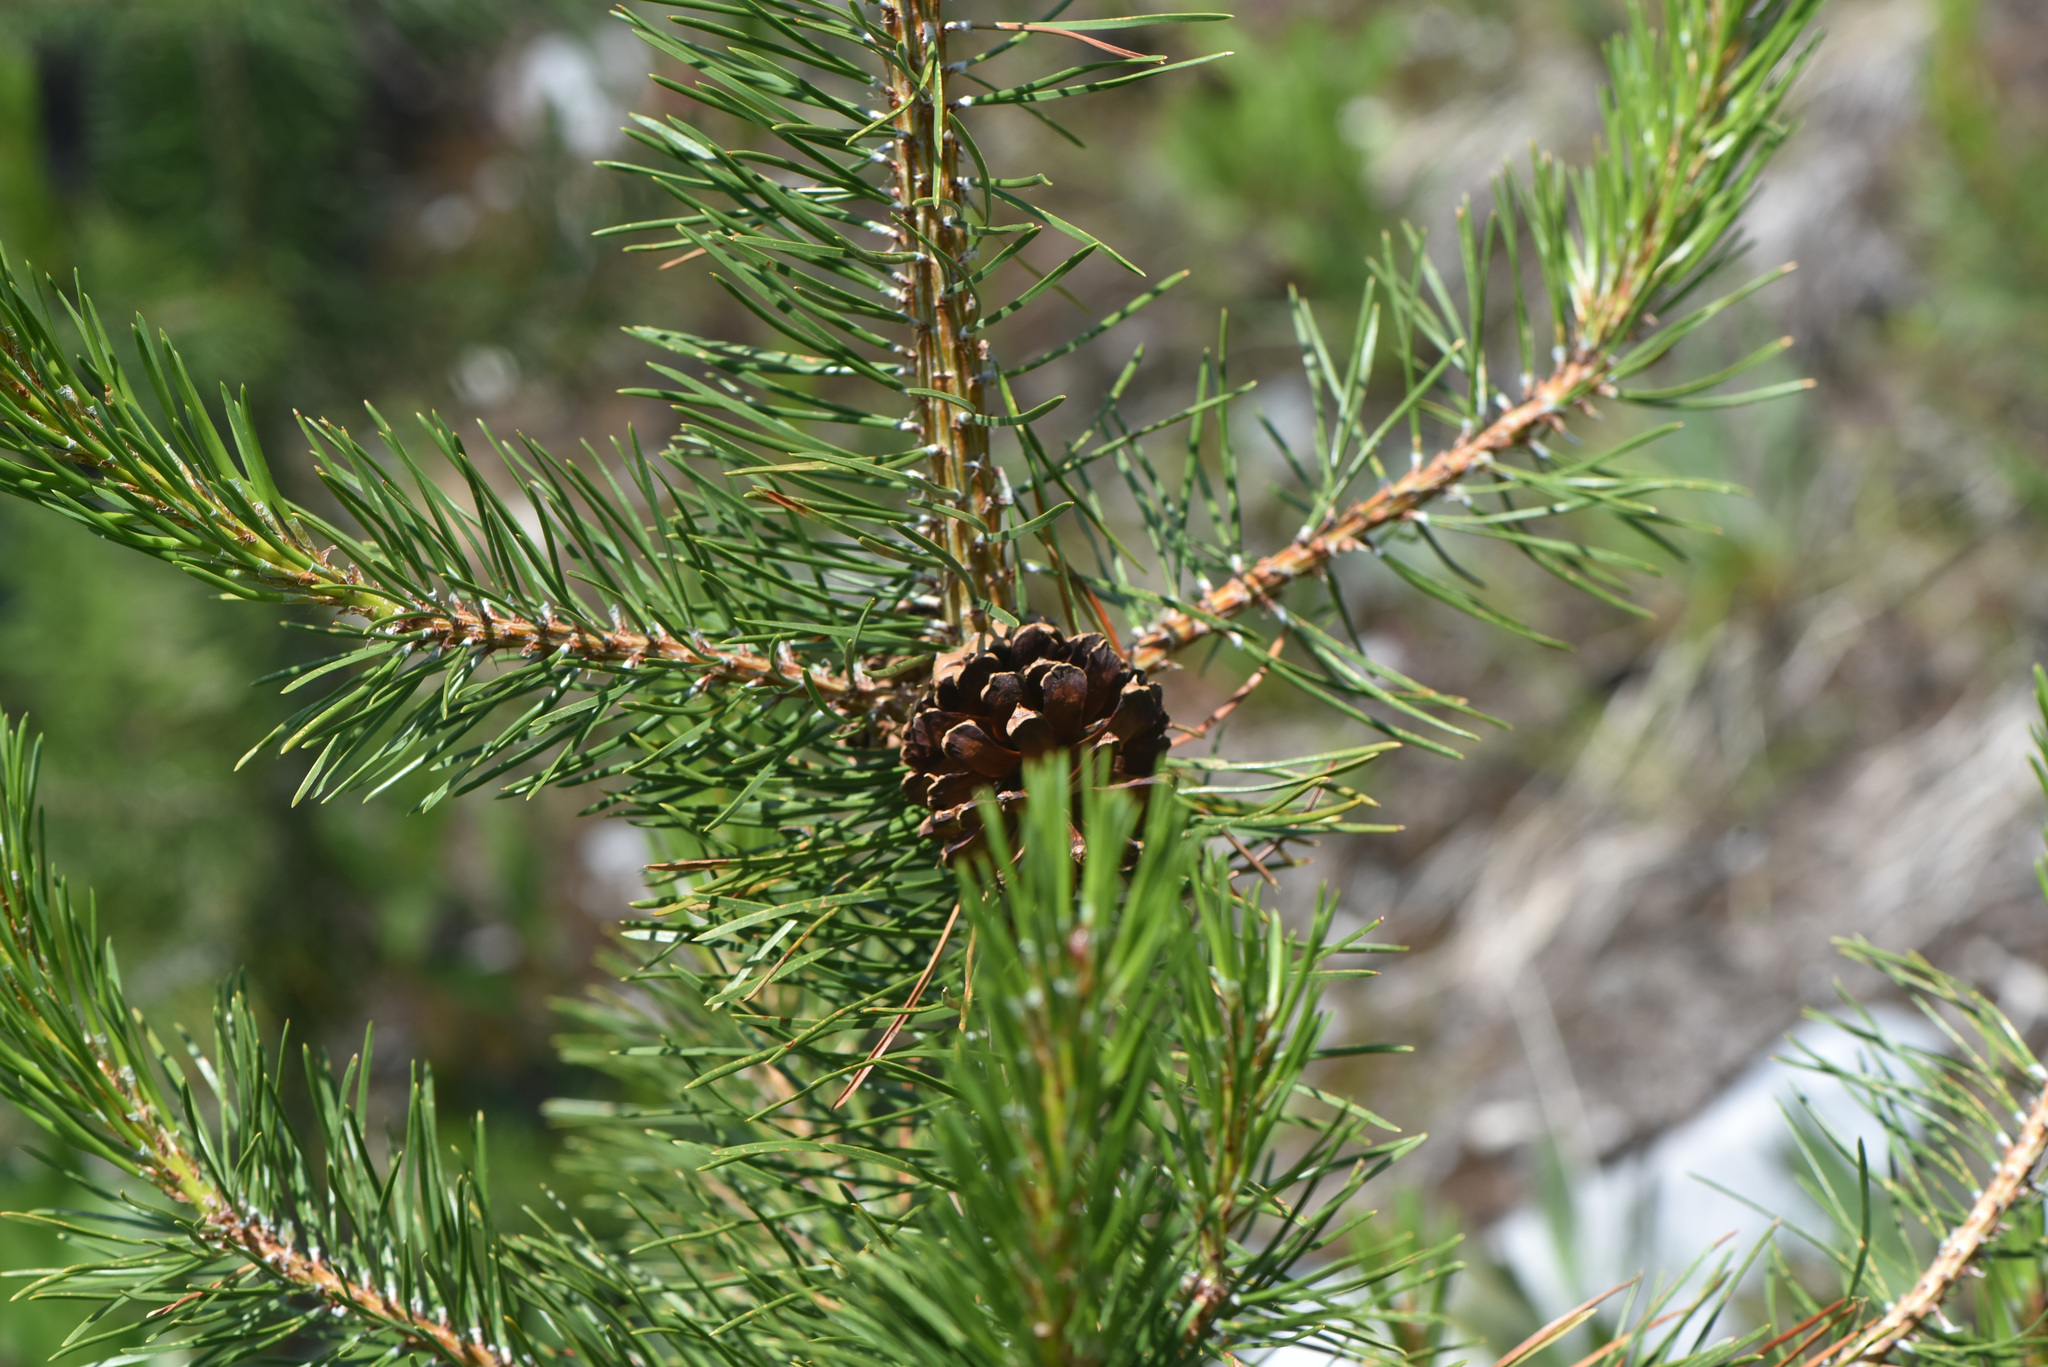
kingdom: Plantae
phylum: Tracheophyta
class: Pinopsida
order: Pinales
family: Pinaceae
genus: Pinus
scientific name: Pinus contorta
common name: Lodgepole pine
